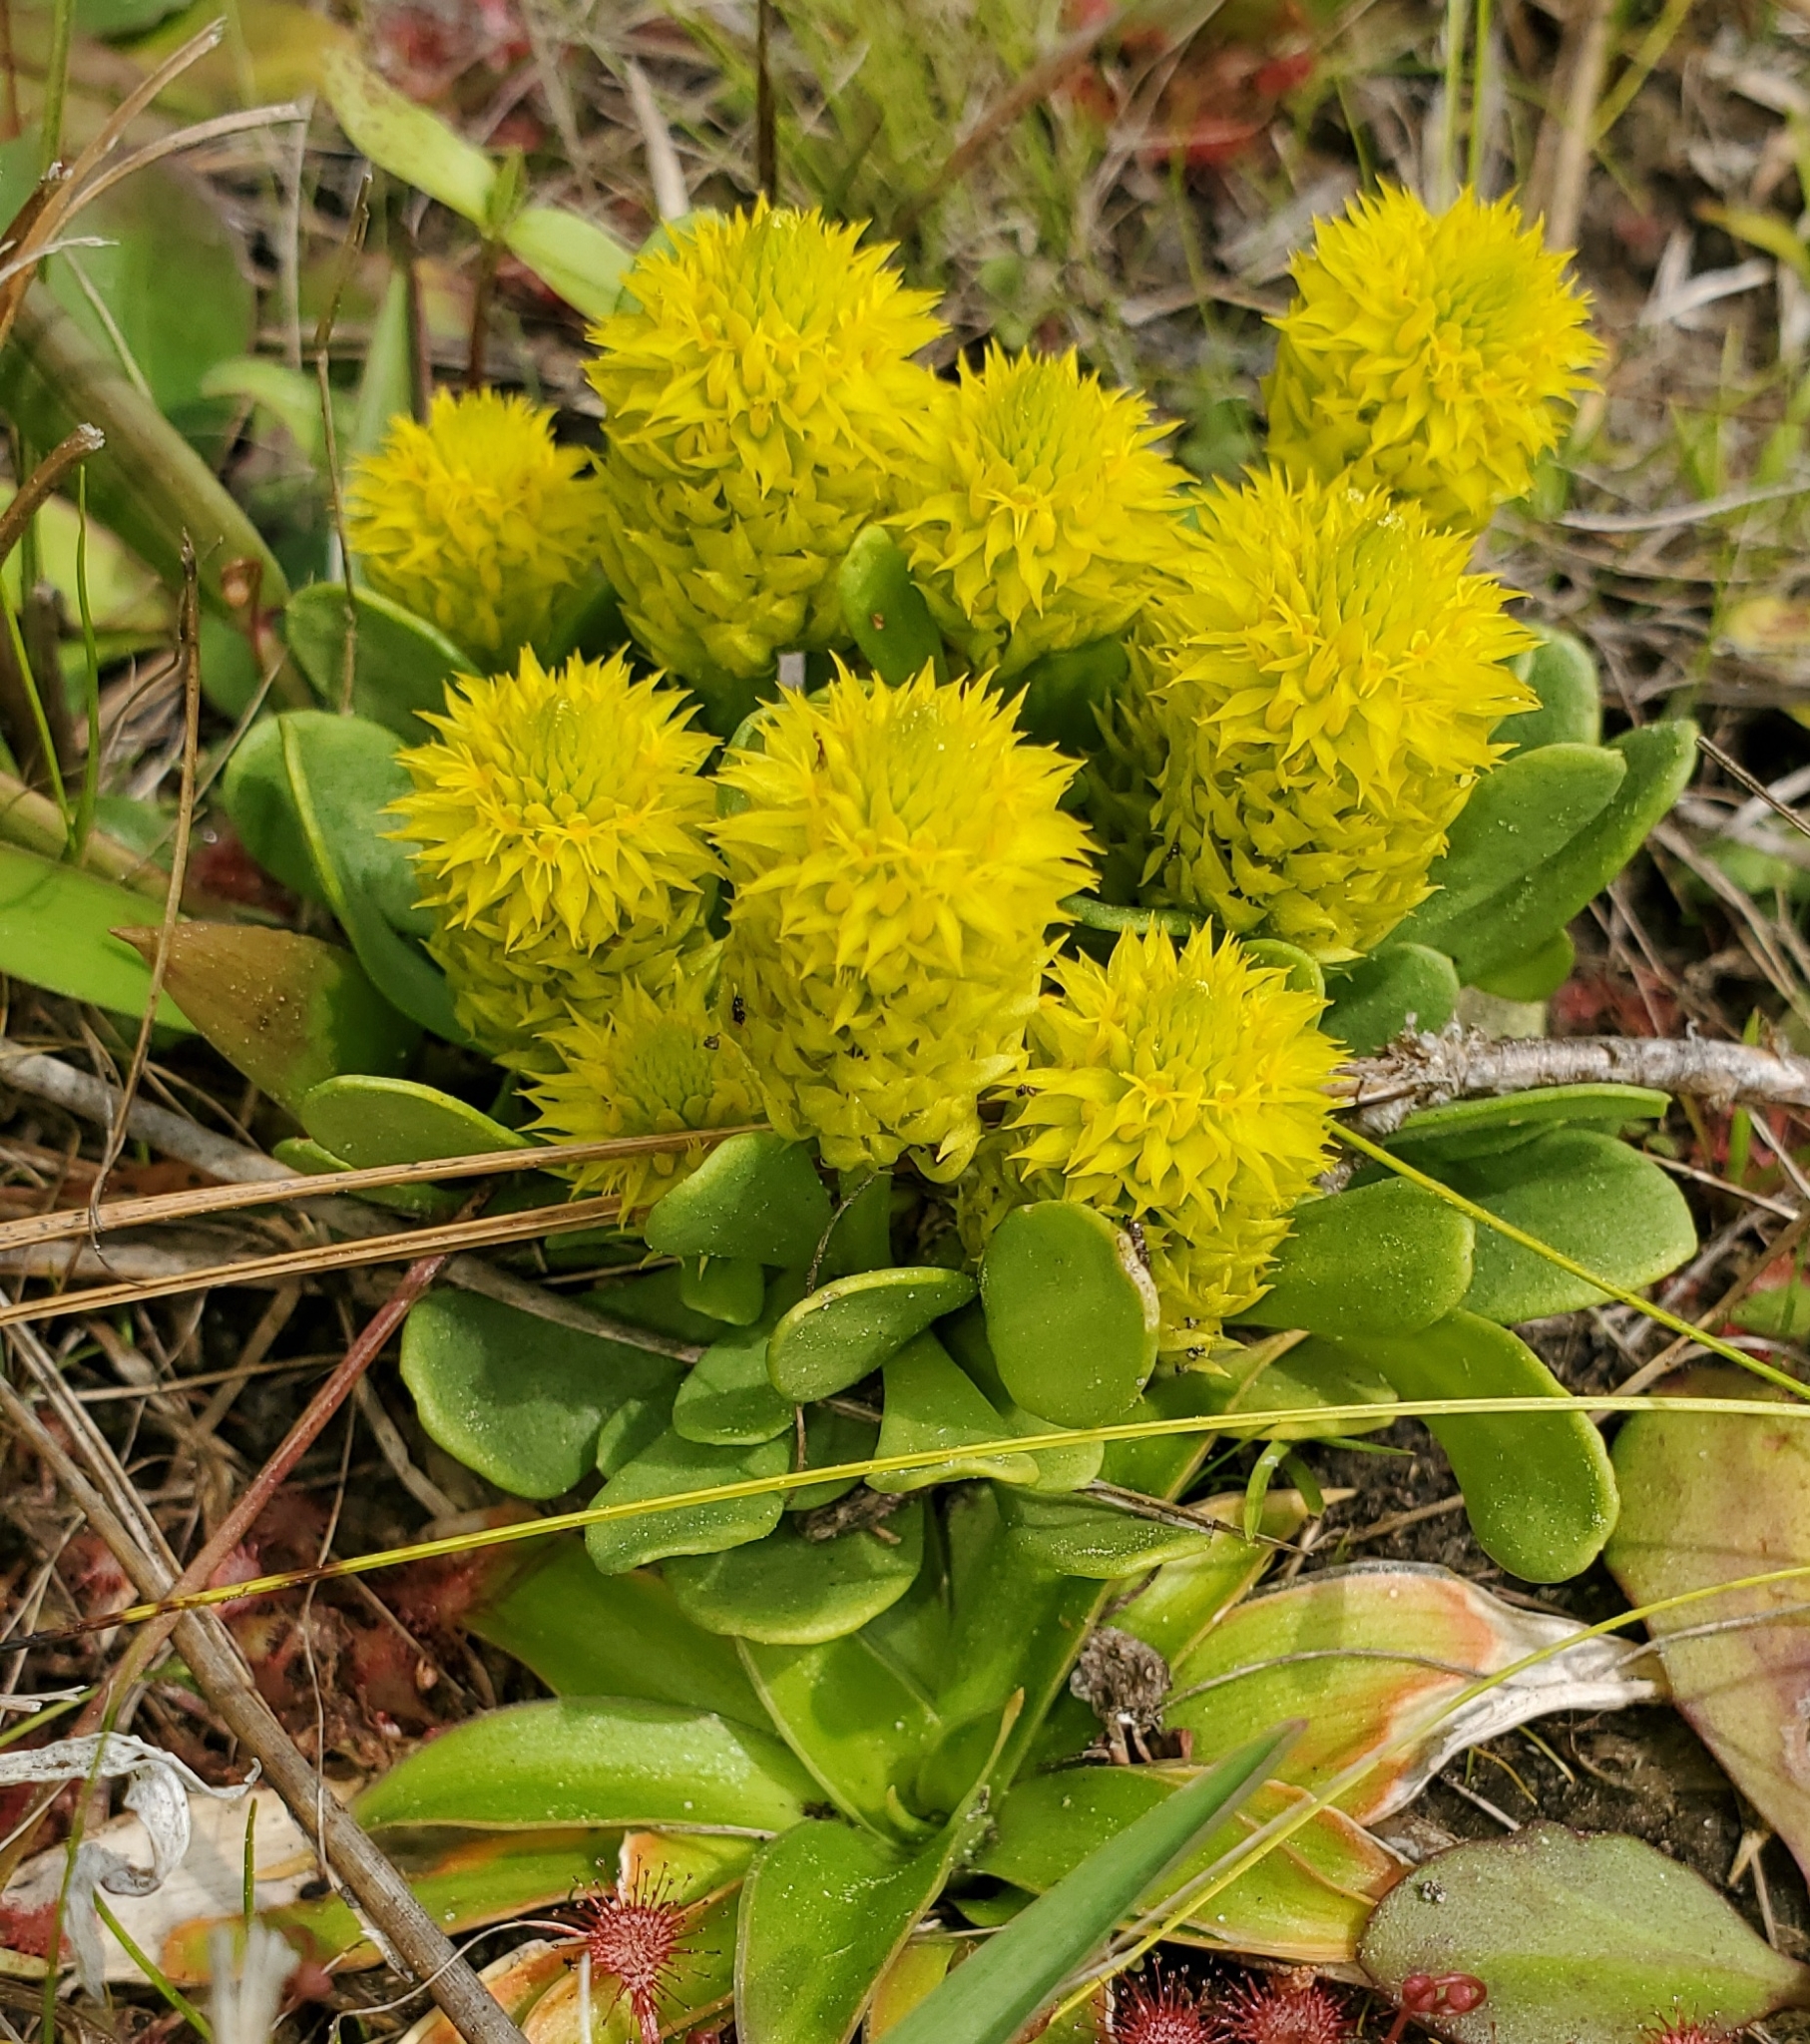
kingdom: Plantae
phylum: Tracheophyta
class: Magnoliopsida
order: Fabales
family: Polygalaceae
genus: Polygala
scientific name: Polygala nana
